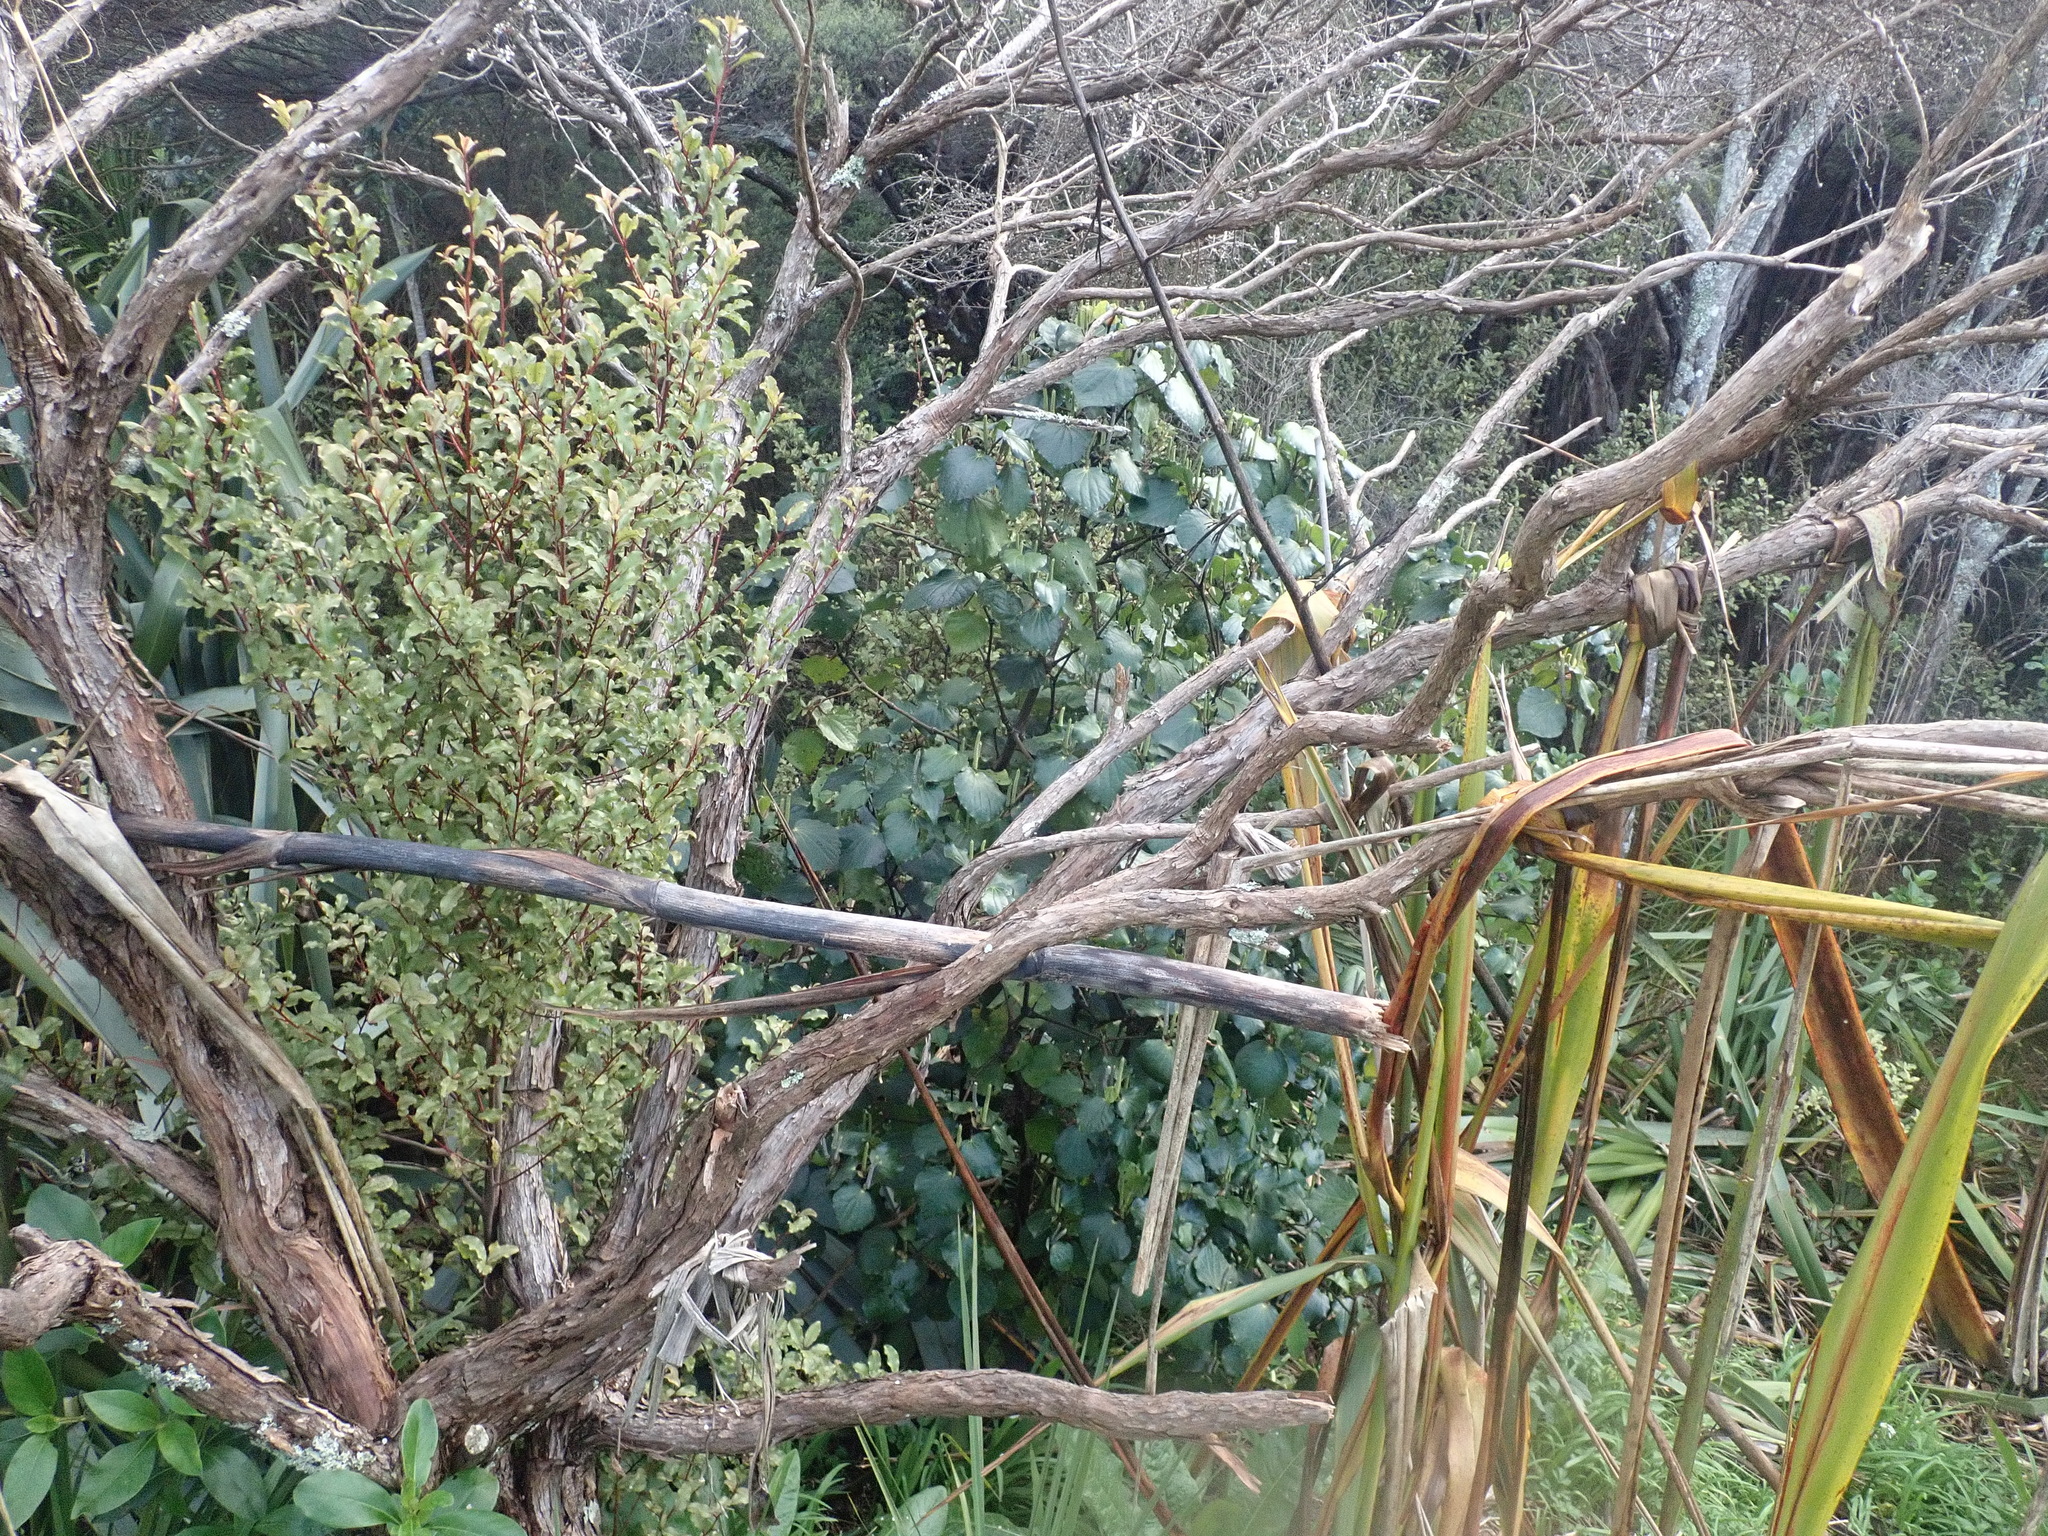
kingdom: Plantae
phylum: Tracheophyta
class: Magnoliopsida
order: Ericales
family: Primulaceae
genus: Myrsine
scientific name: Myrsine australis
